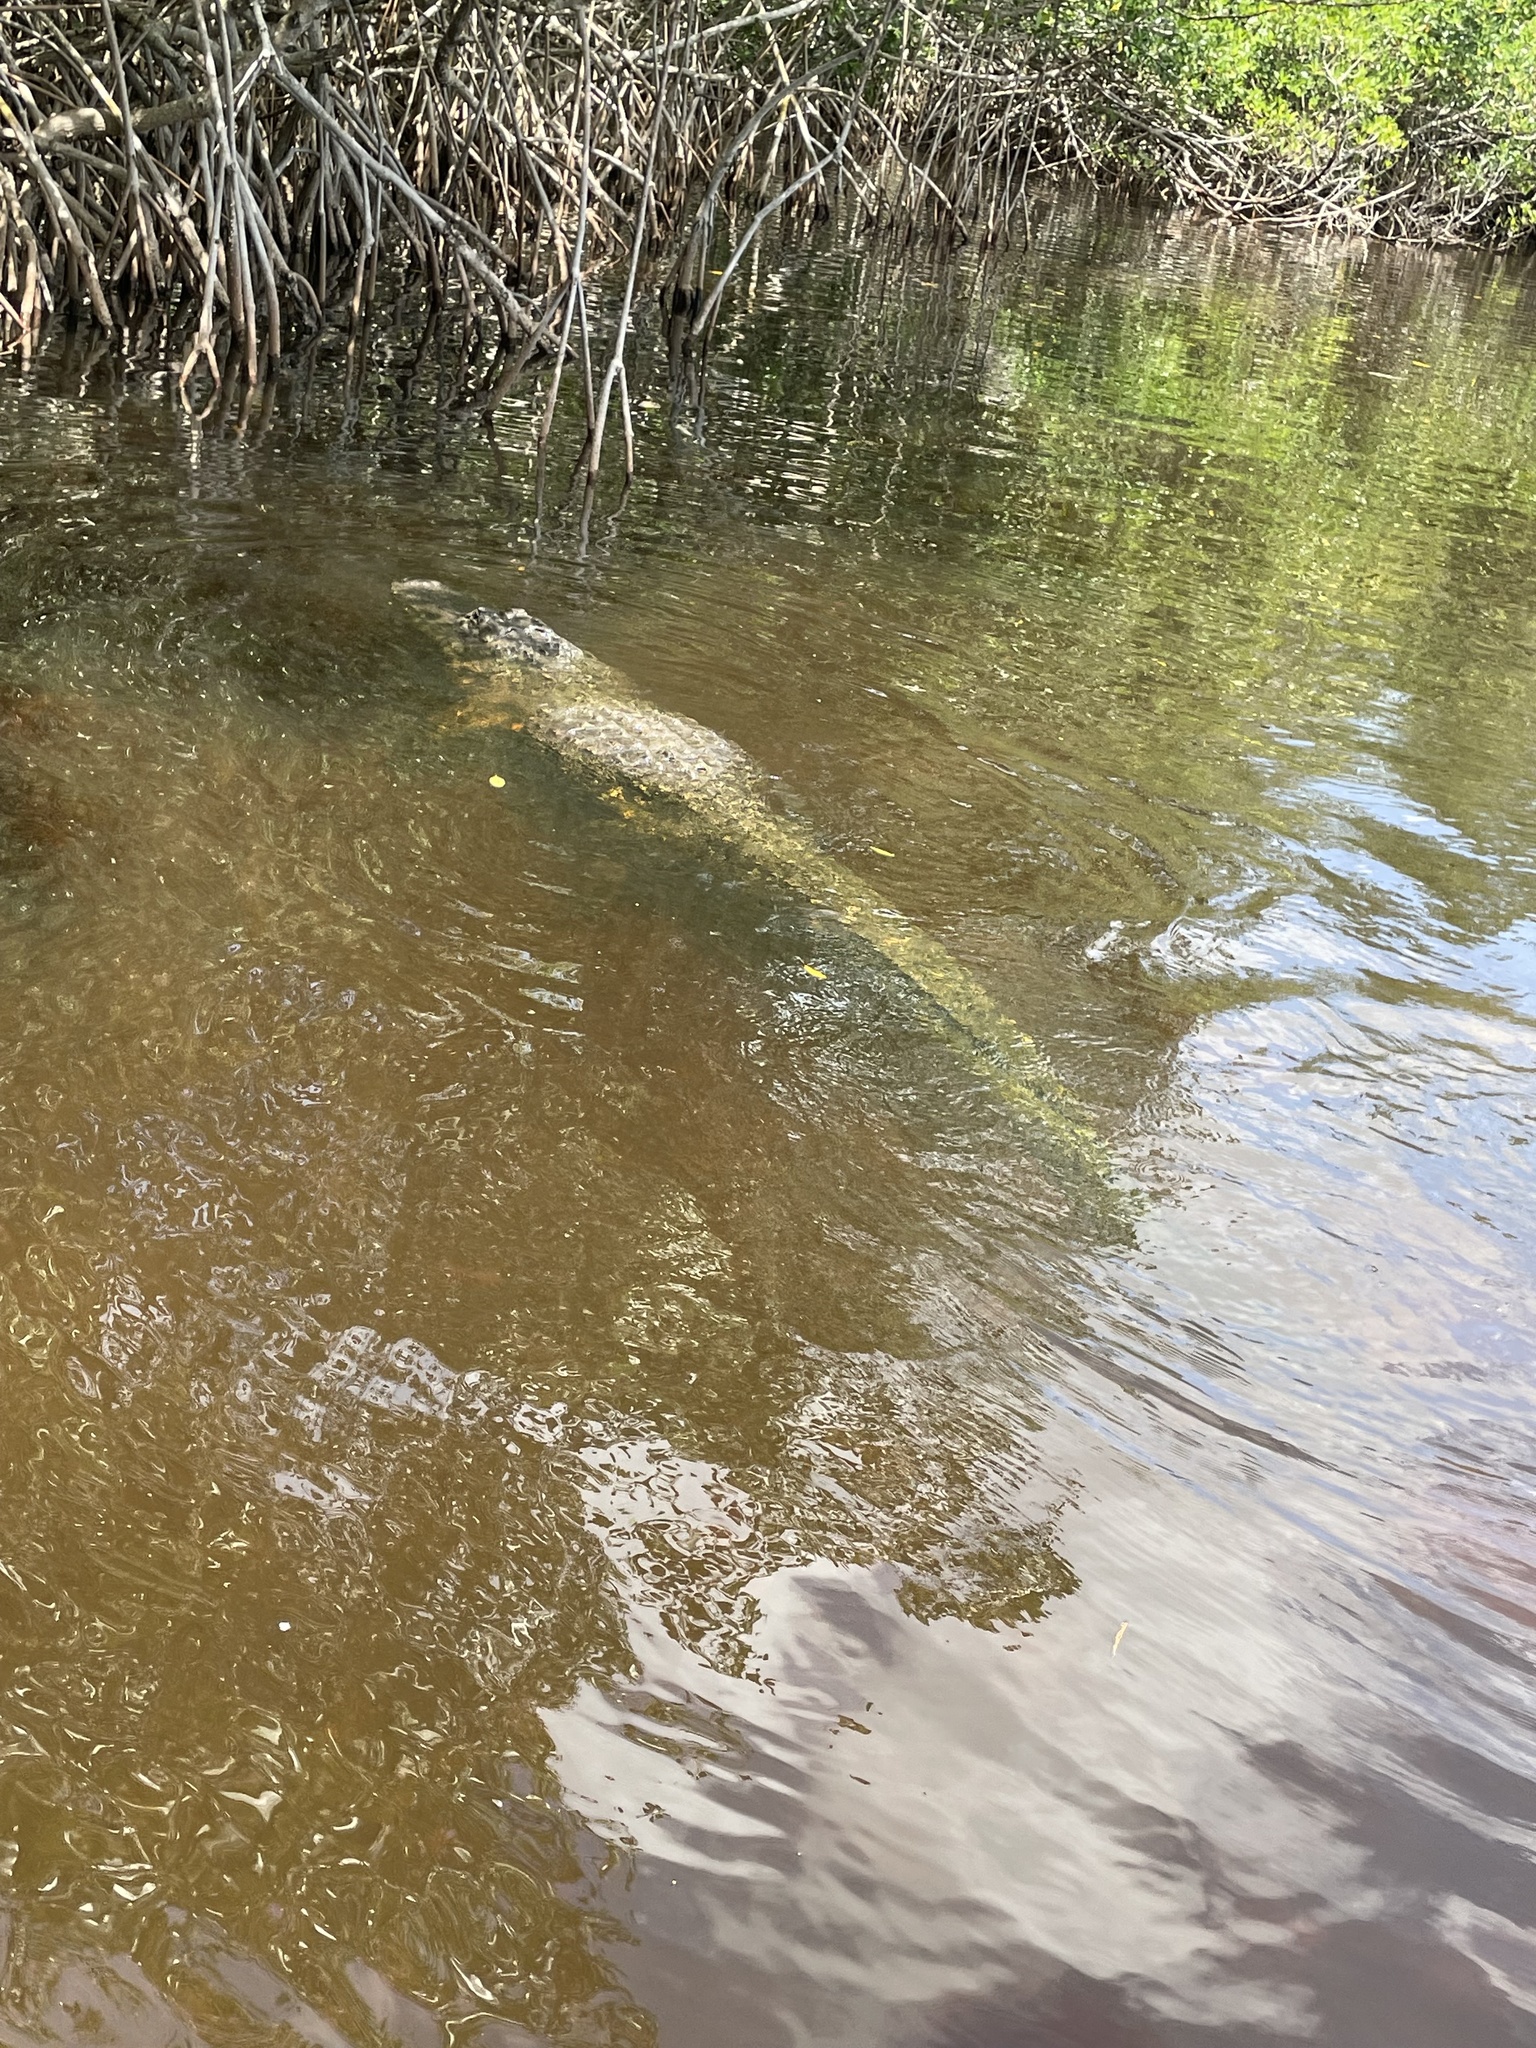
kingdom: Animalia
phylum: Chordata
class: Crocodylia
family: Alligatoridae
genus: Alligator
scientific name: Alligator mississippiensis
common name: American alligator
